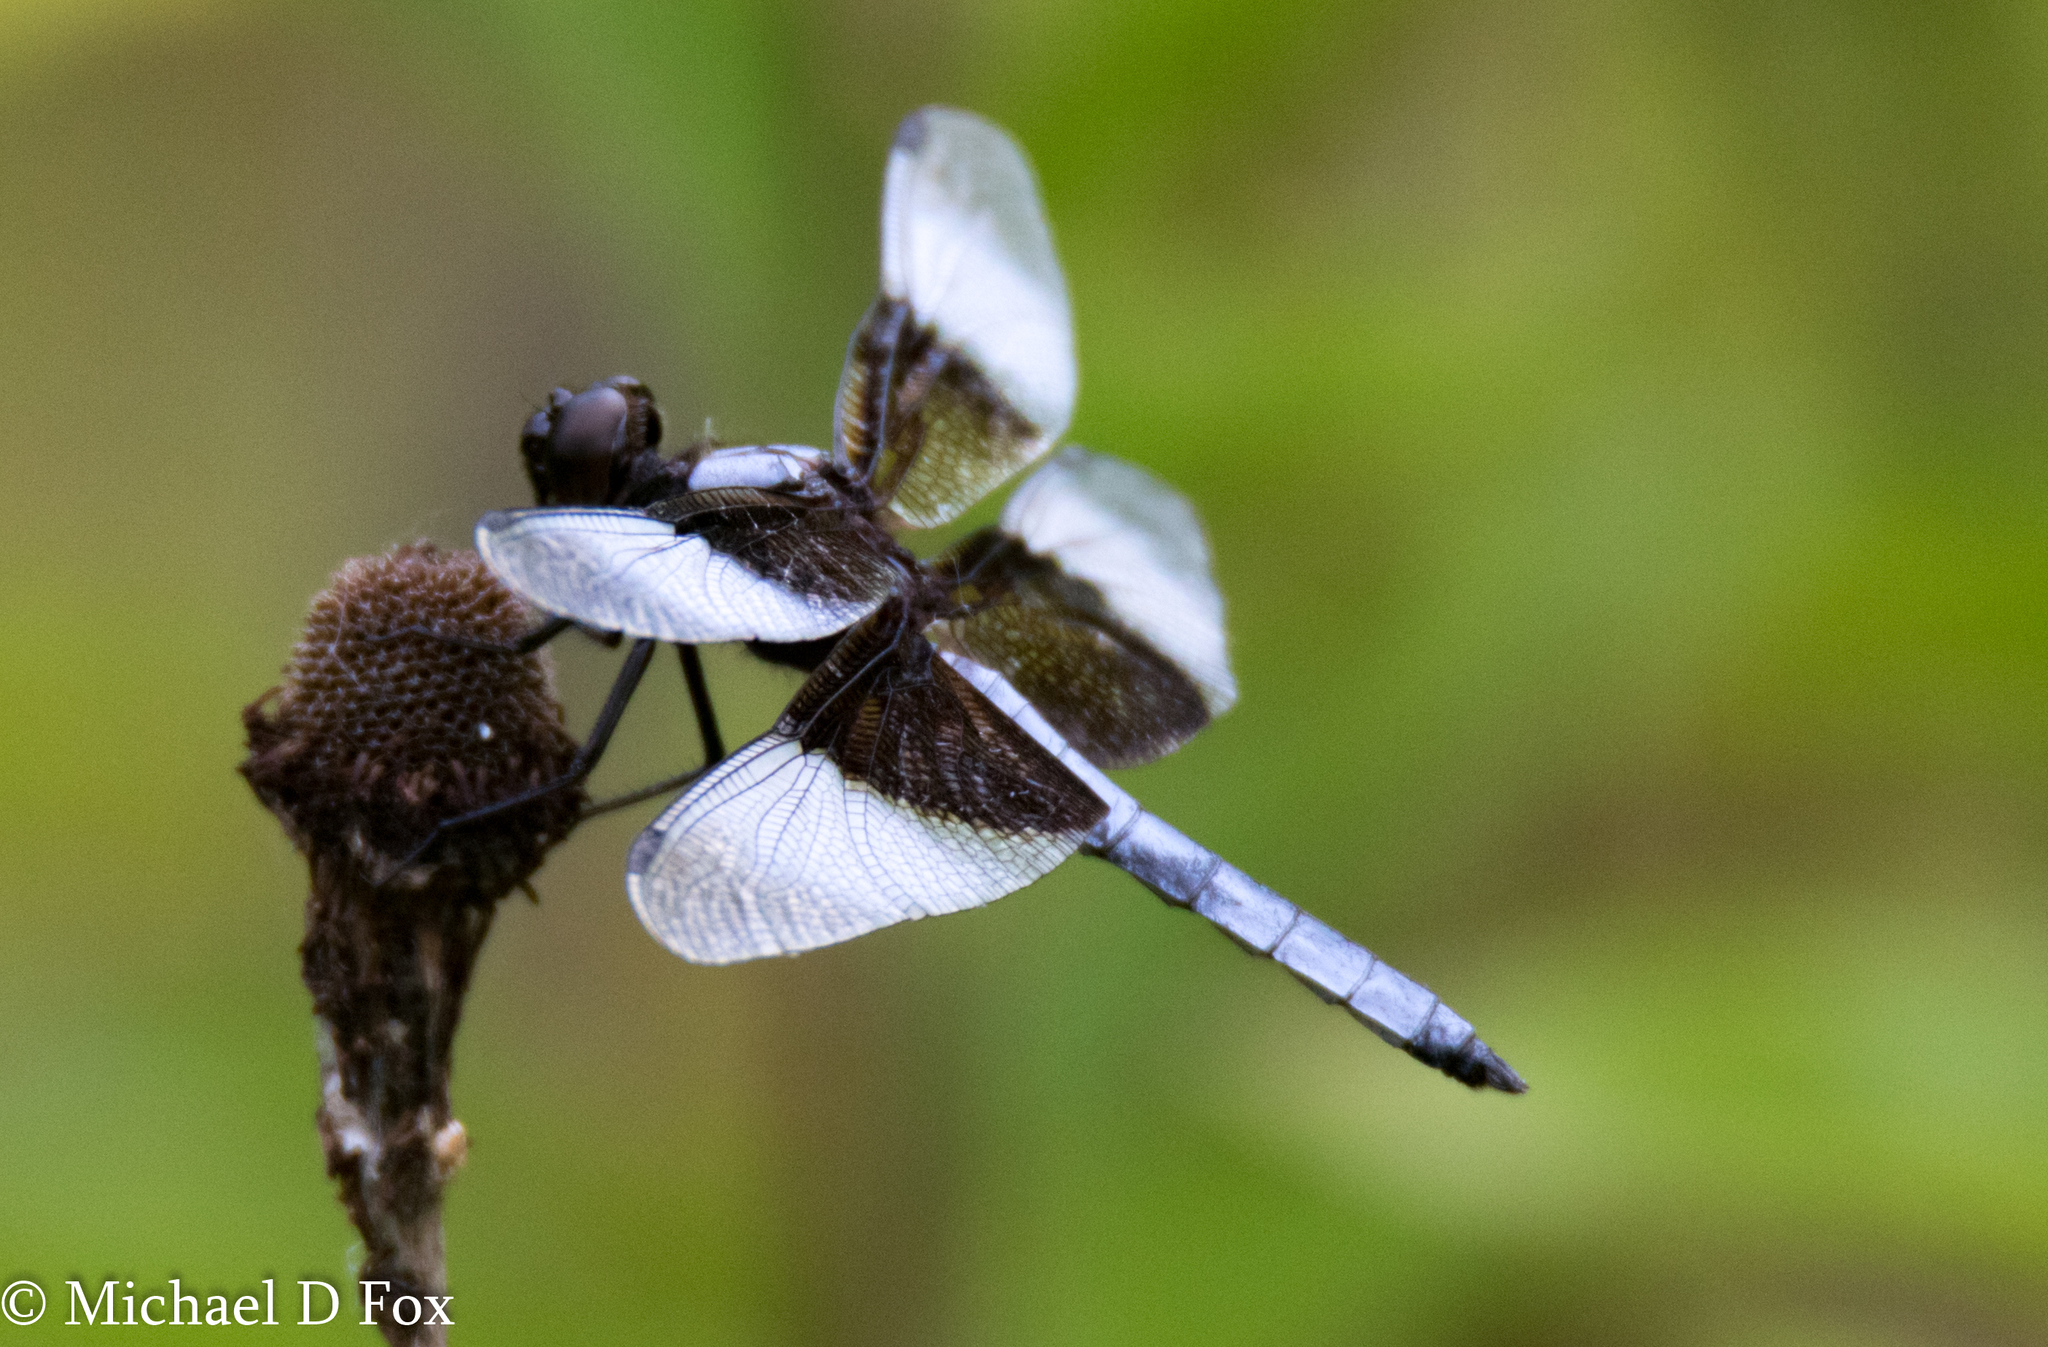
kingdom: Animalia
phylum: Arthropoda
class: Insecta
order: Odonata
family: Libellulidae
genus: Libellula
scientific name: Libellula luctuosa
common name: Widow skimmer
